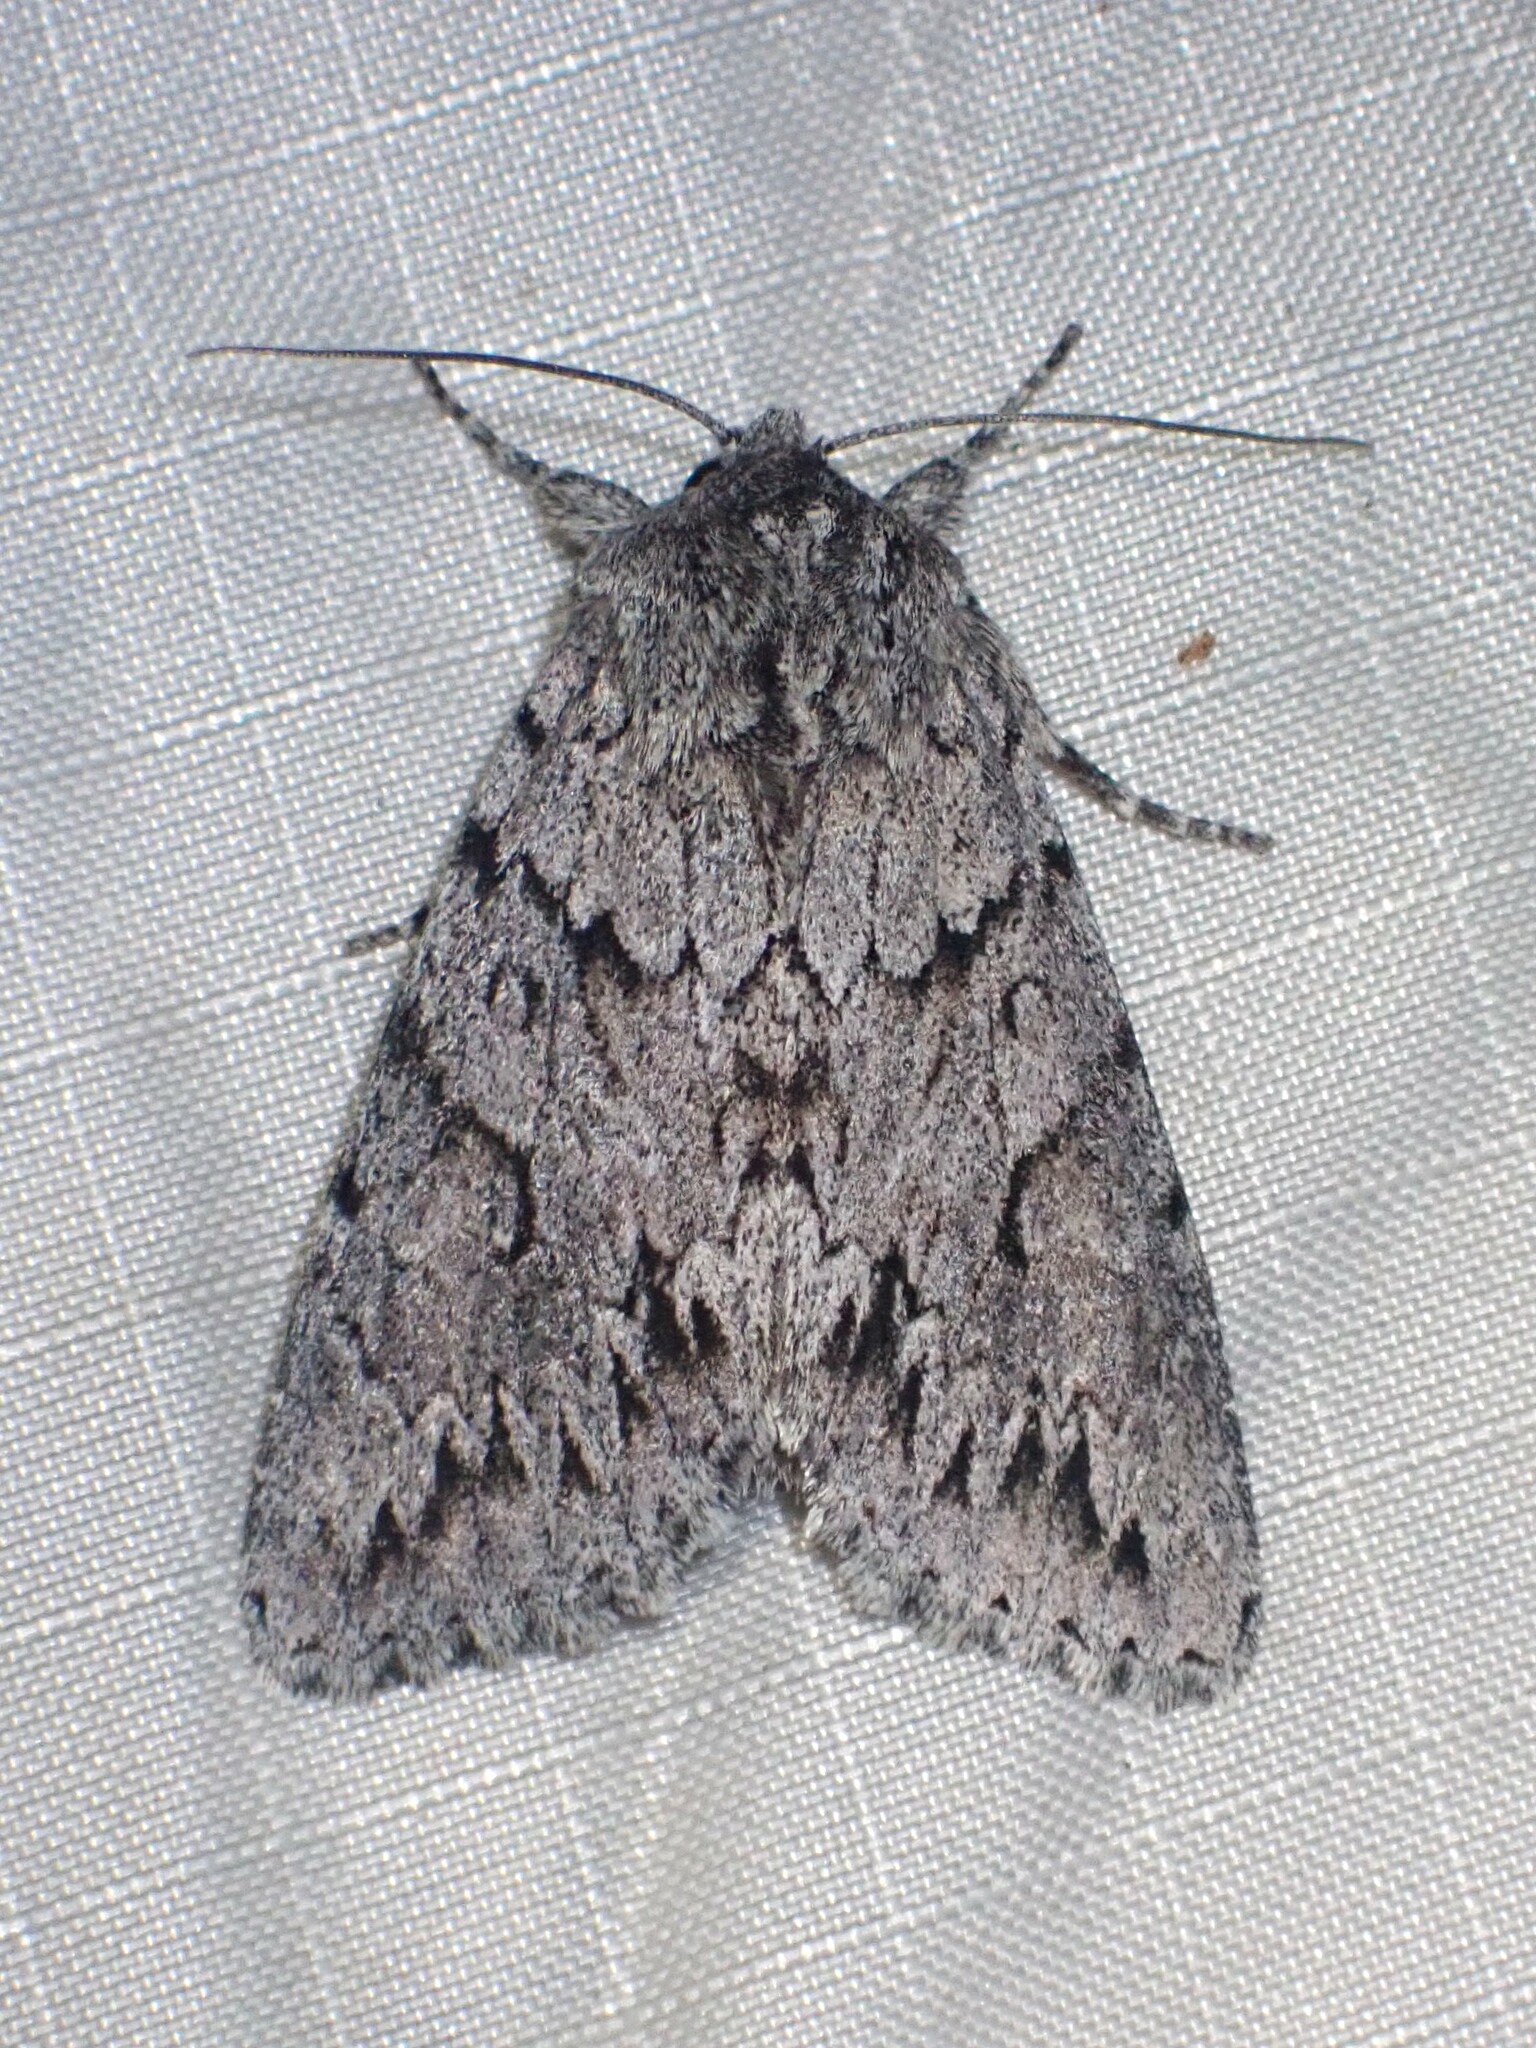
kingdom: Animalia
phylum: Arthropoda
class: Insecta
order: Lepidoptera
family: Noctuidae
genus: Andropolia
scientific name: Andropolia contacta
